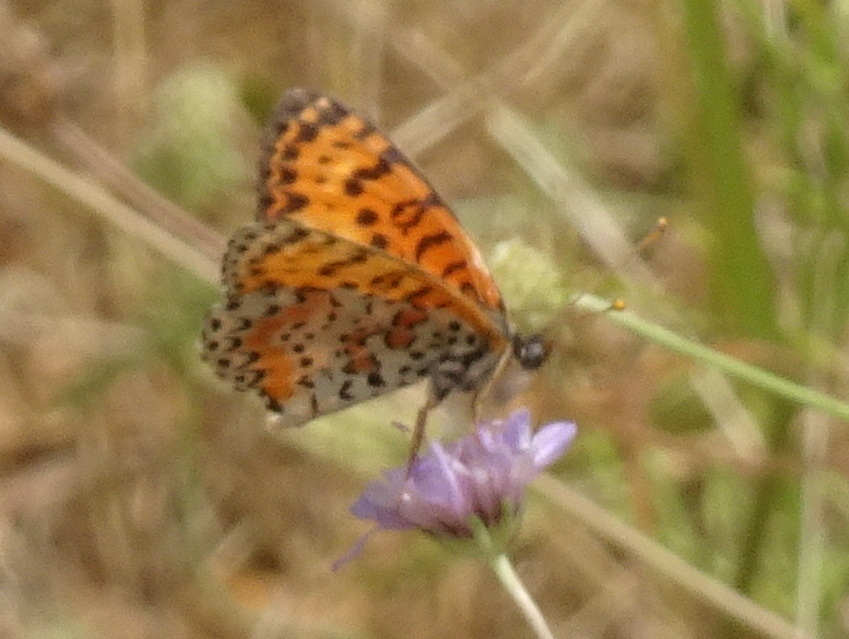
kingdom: Animalia
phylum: Arthropoda
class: Insecta
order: Lepidoptera
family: Nymphalidae
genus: Melitaea
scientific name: Melitaea didyma
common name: Spotted fritillary
